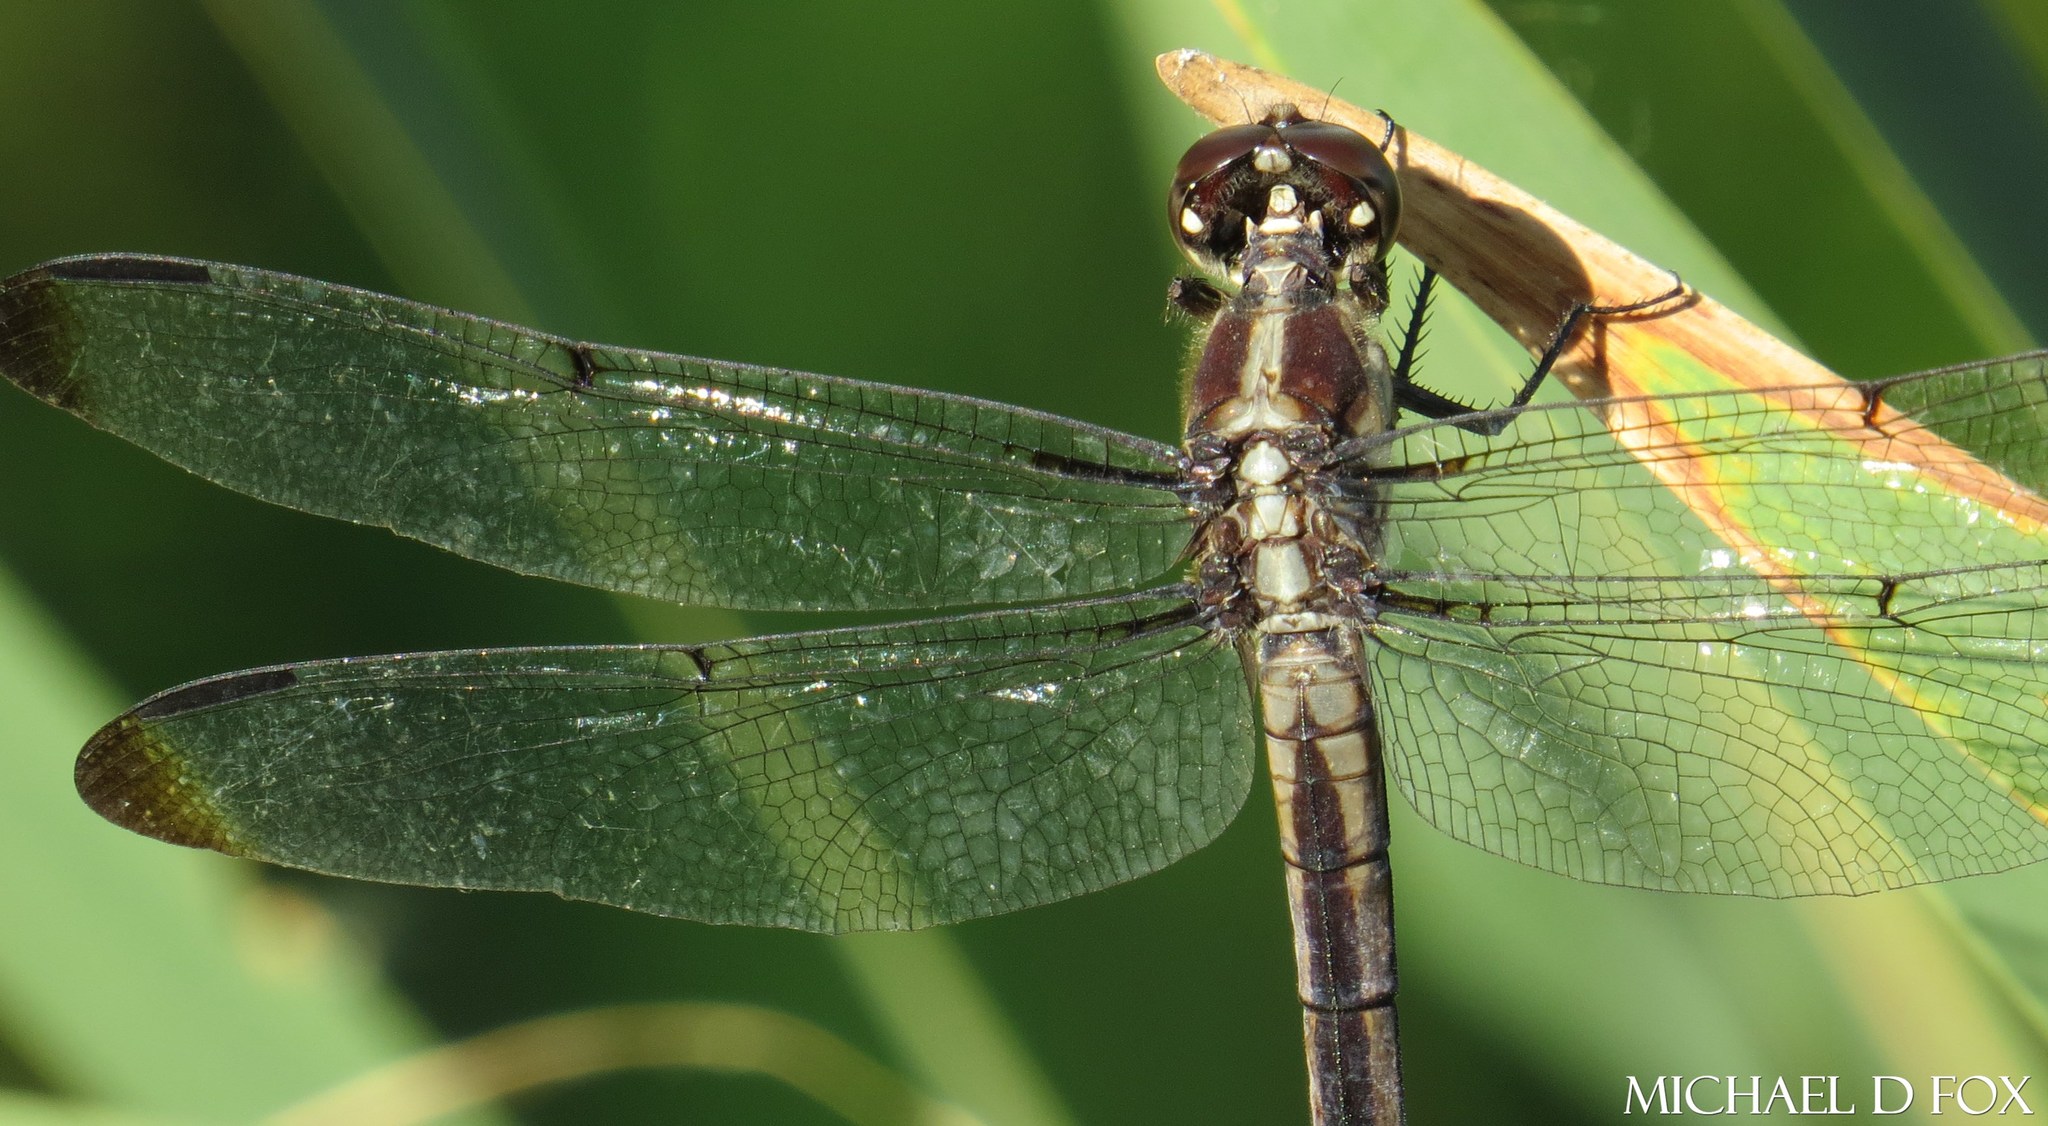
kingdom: Animalia
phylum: Arthropoda
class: Insecta
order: Odonata
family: Libellulidae
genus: Libellula
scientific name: Libellula incesta
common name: Slaty skimmer
